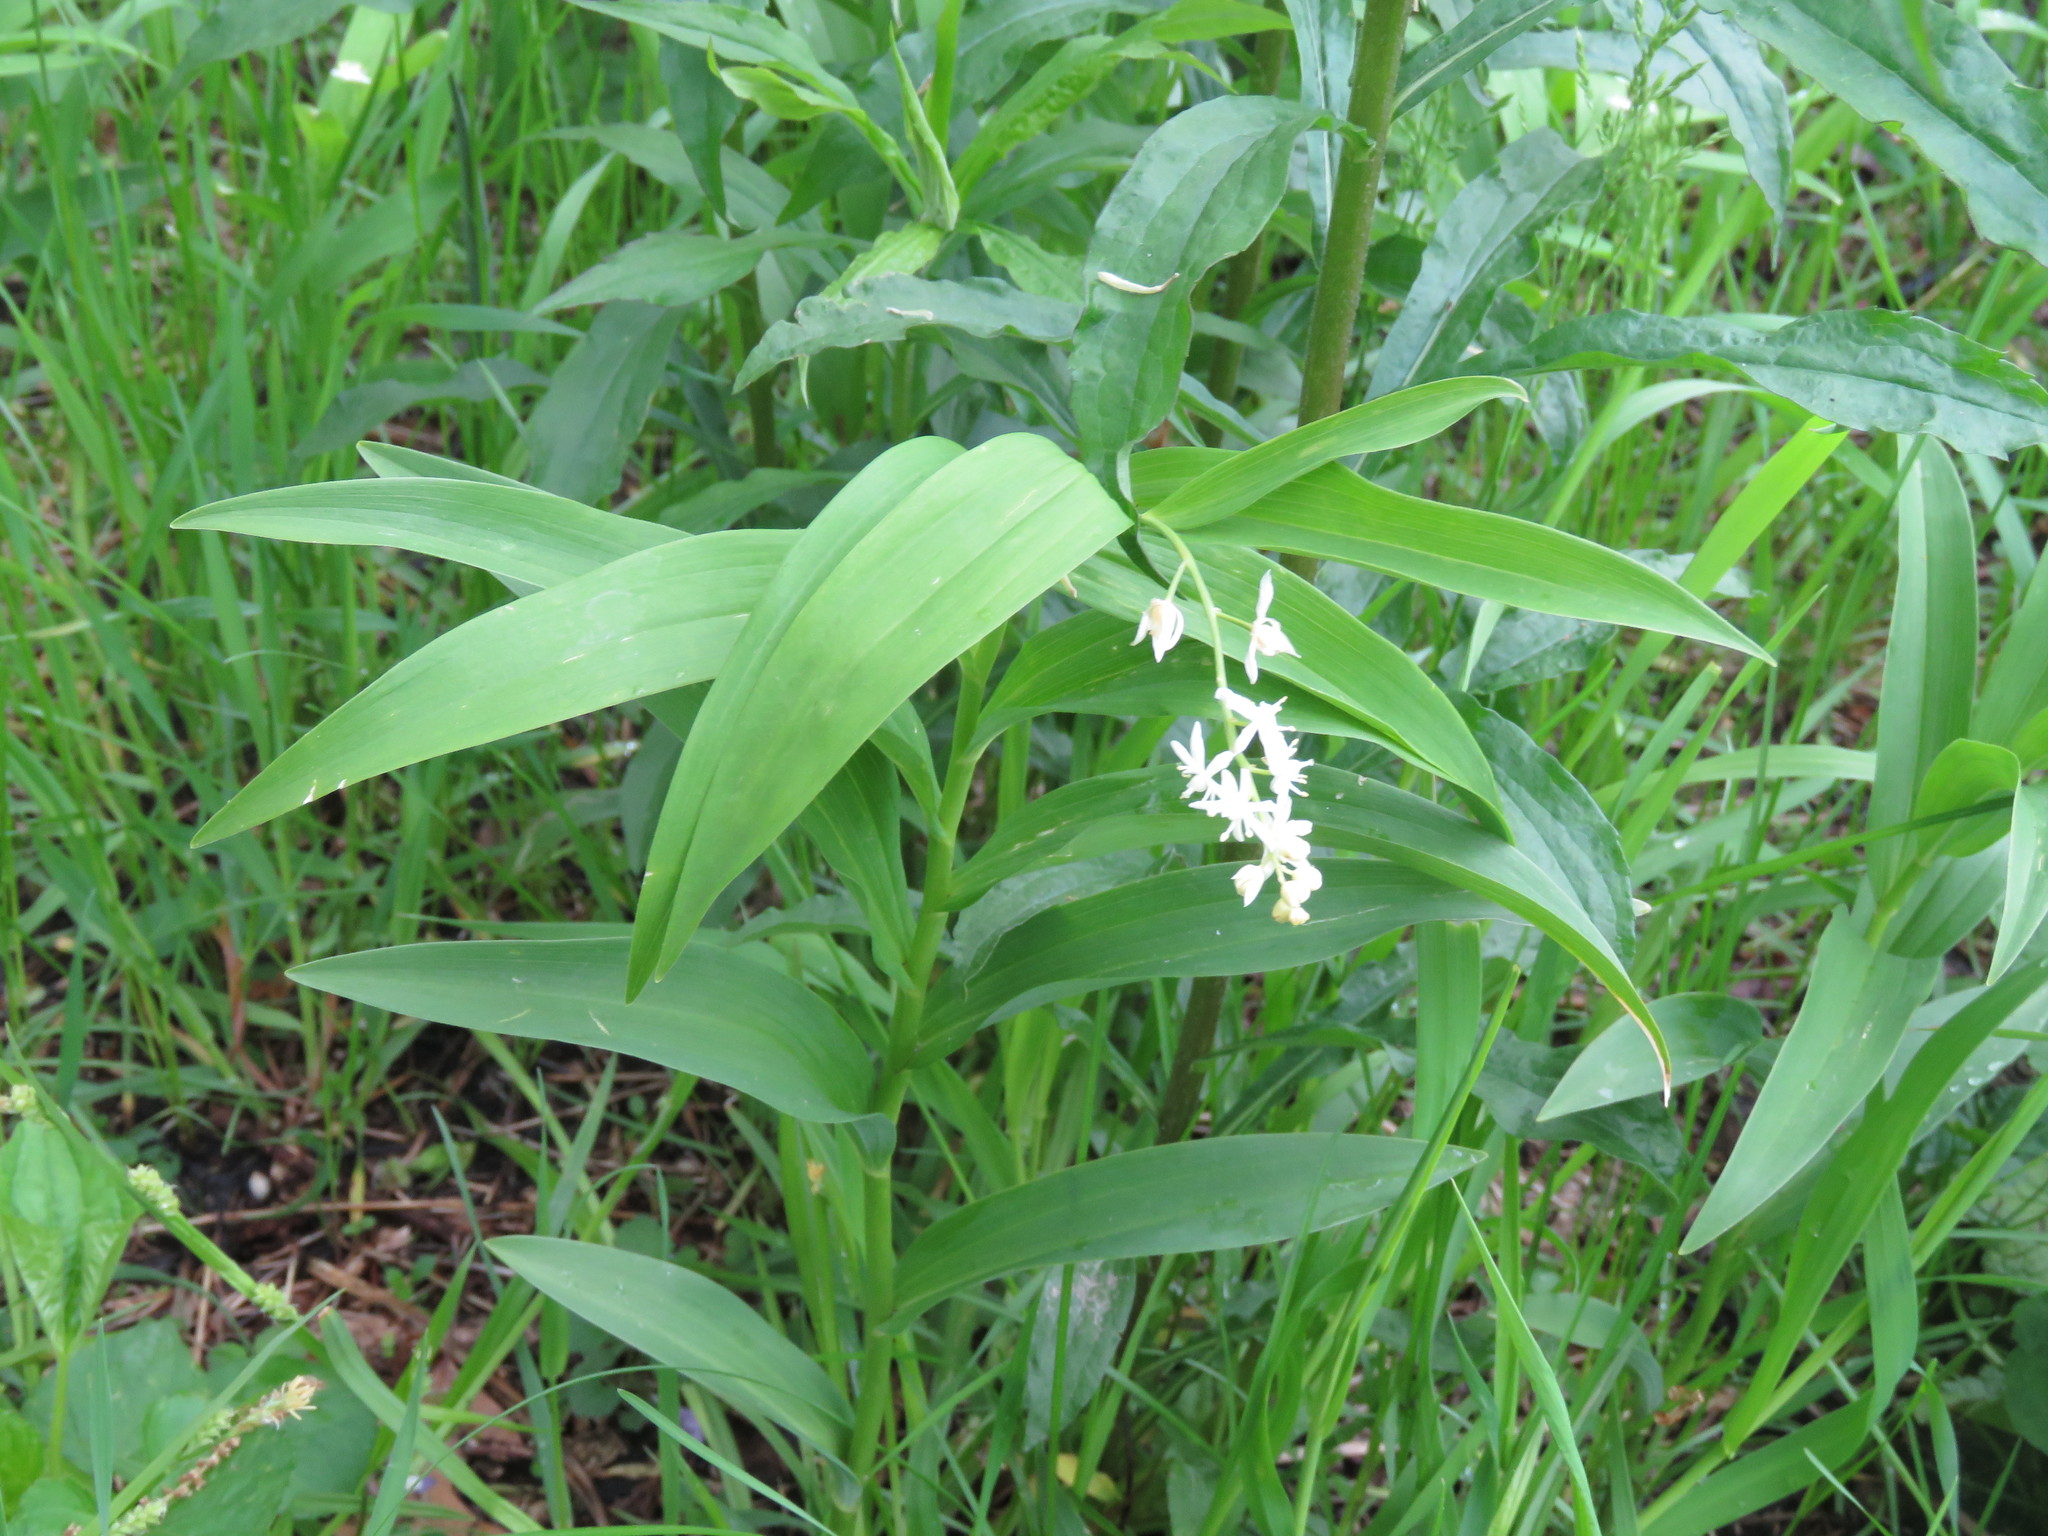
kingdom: Plantae
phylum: Tracheophyta
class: Liliopsida
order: Asparagales
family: Asparagaceae
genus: Maianthemum
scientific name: Maianthemum stellatum
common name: Little false solomon's seal
